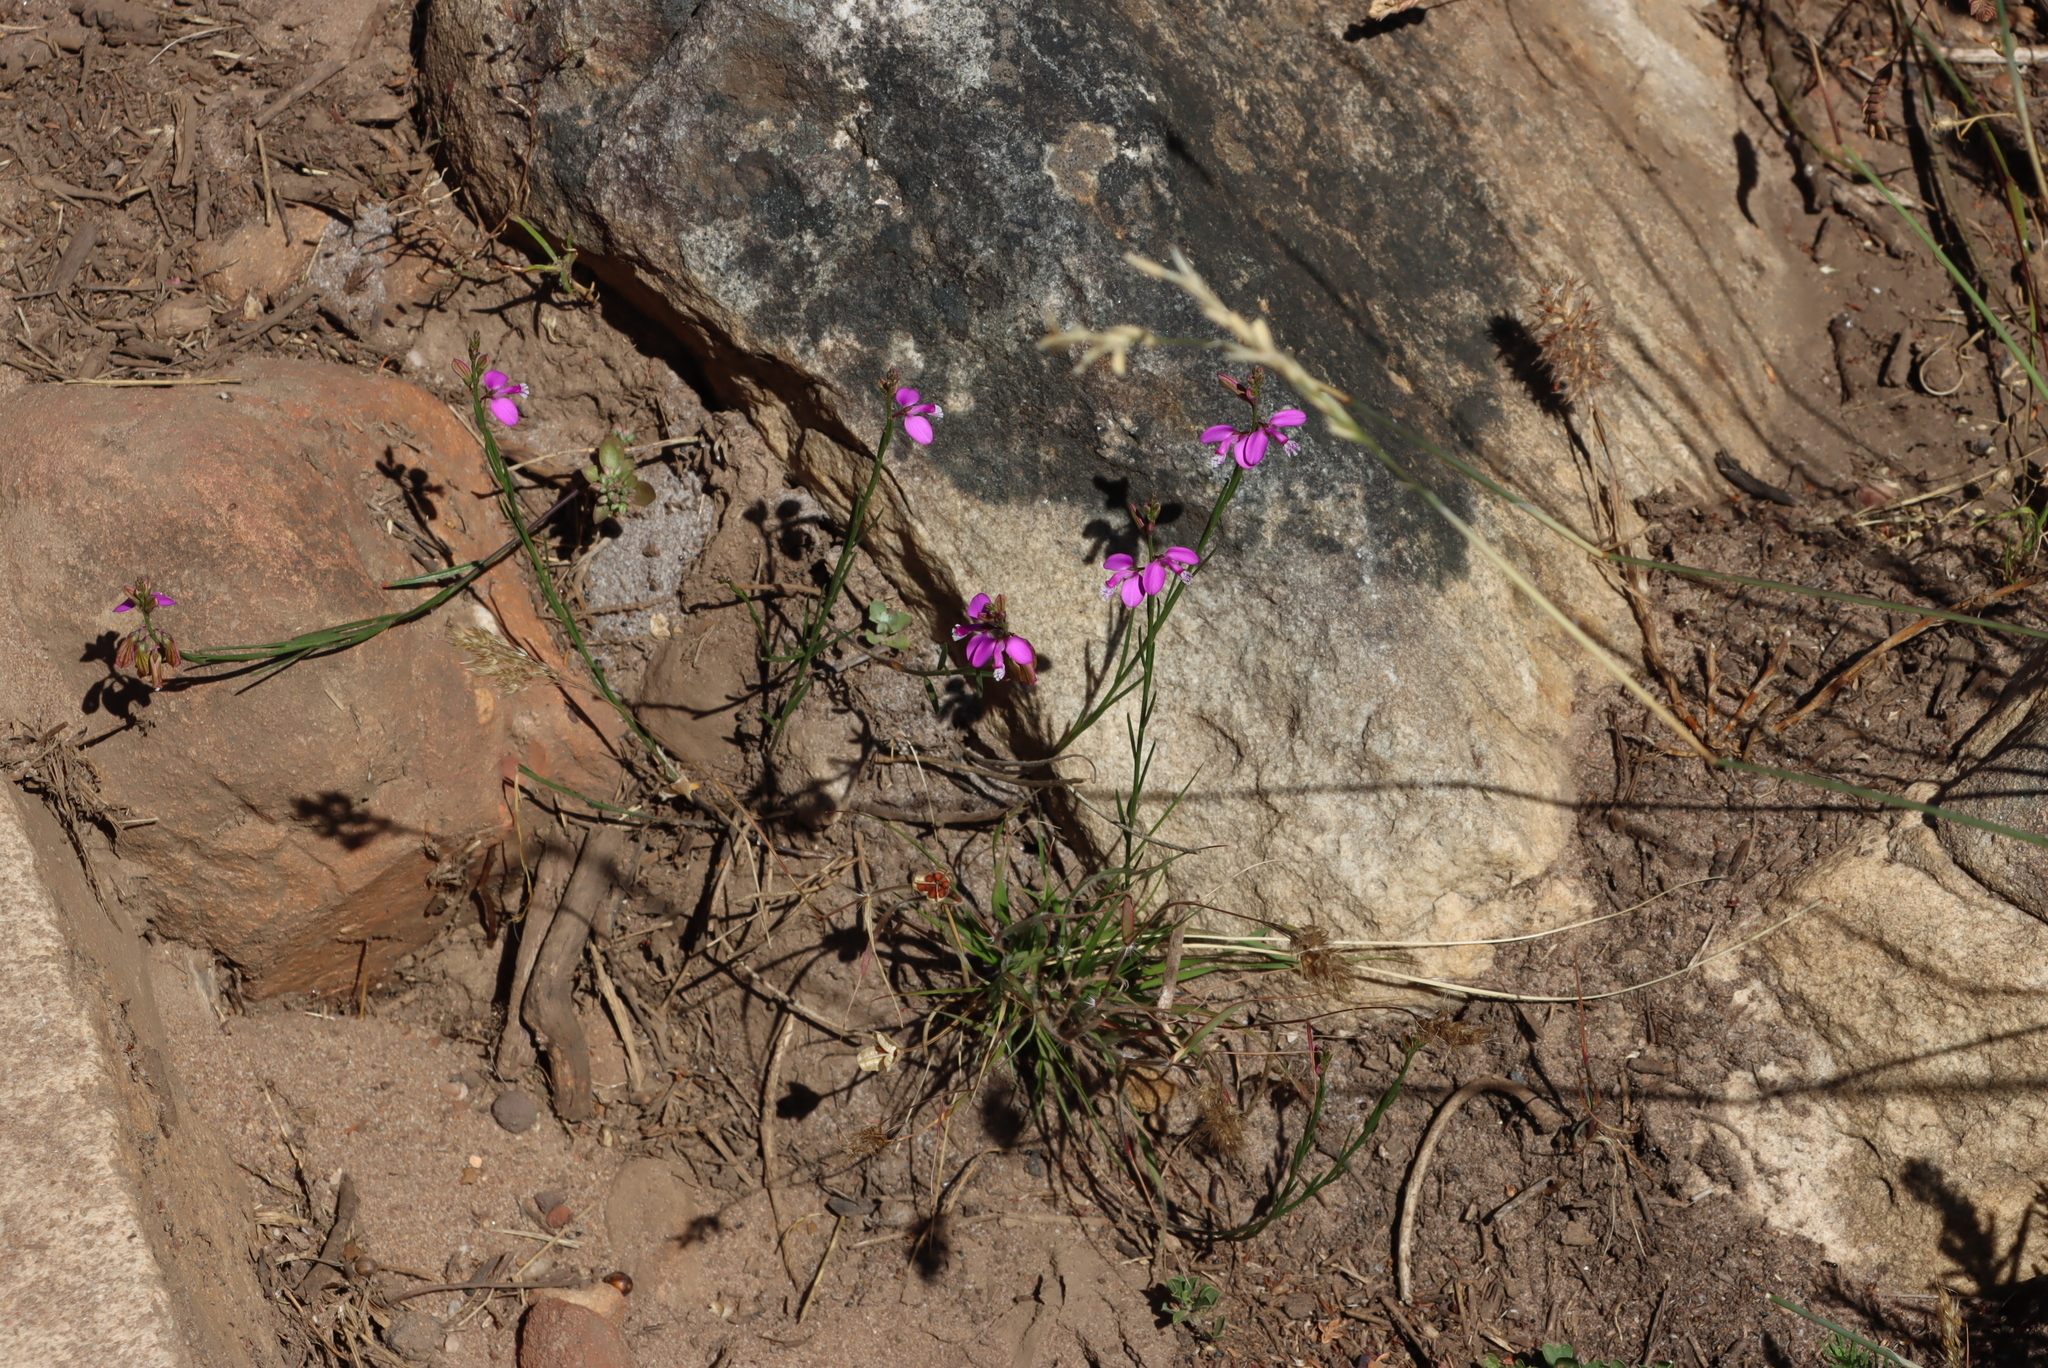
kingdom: Plantae
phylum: Tracheophyta
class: Magnoliopsida
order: Fabales
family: Polygalaceae
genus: Polygala
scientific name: Polygala garcini
